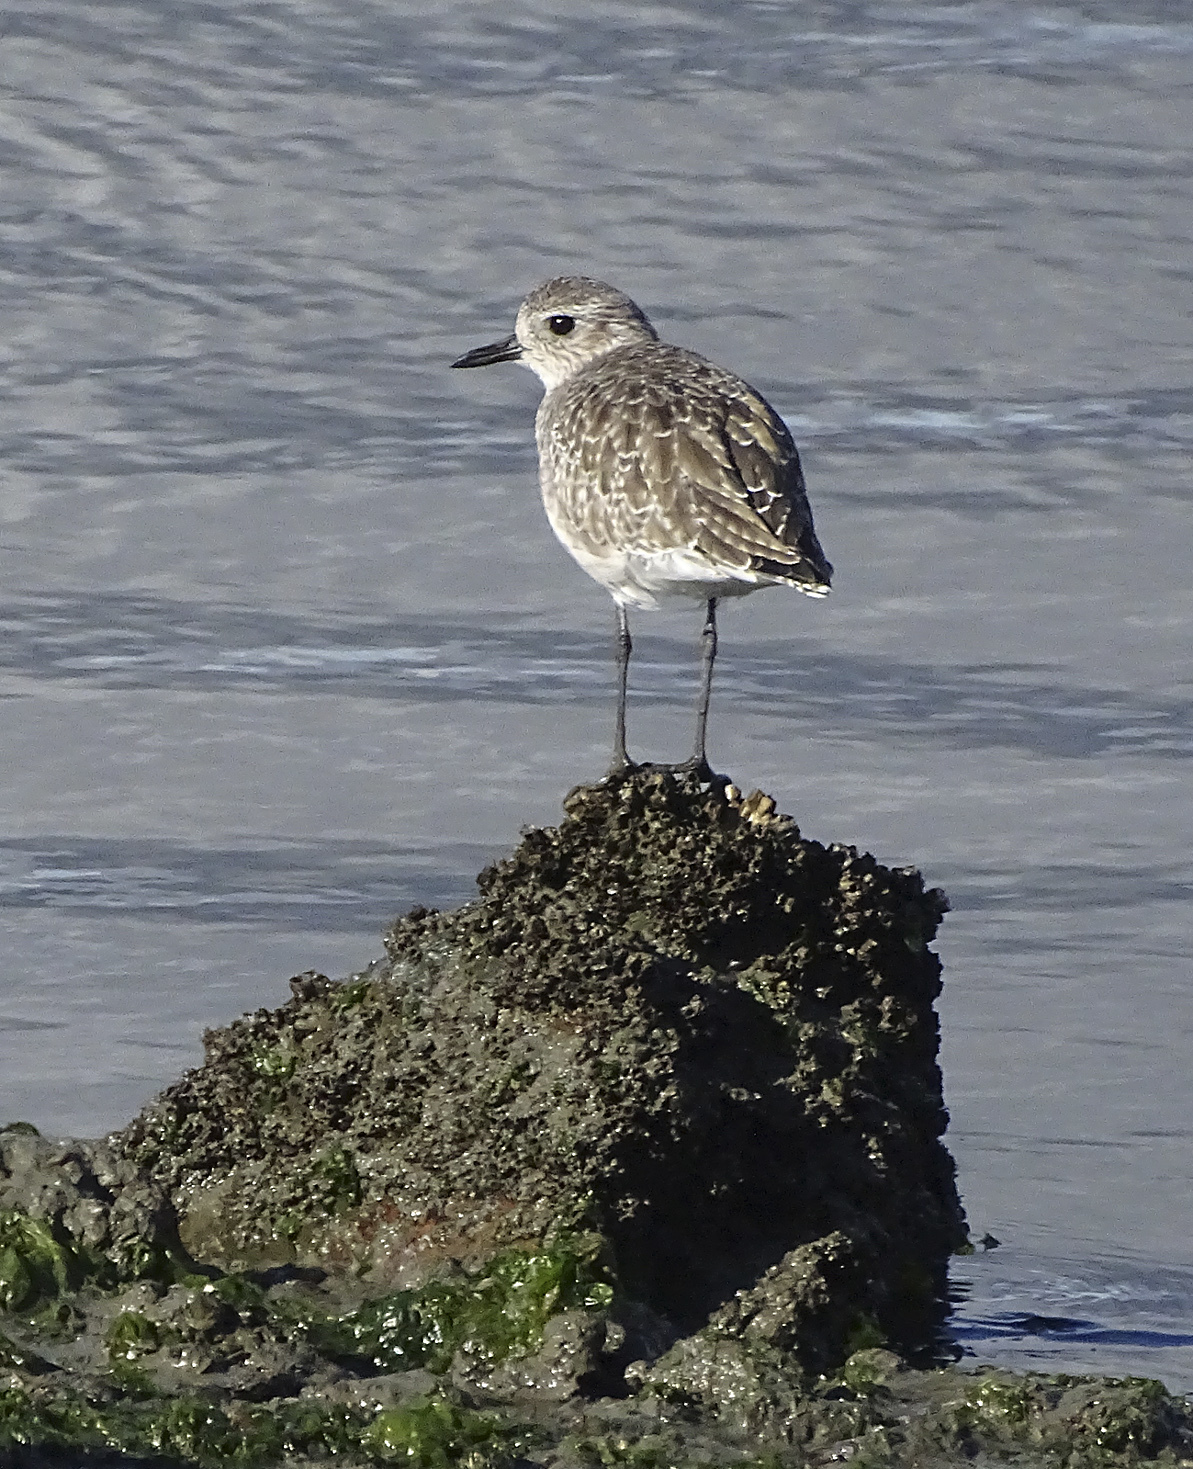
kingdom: Animalia
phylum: Chordata
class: Aves
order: Charadriiformes
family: Charadriidae
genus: Pluvialis
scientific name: Pluvialis squatarola
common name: Grey plover
